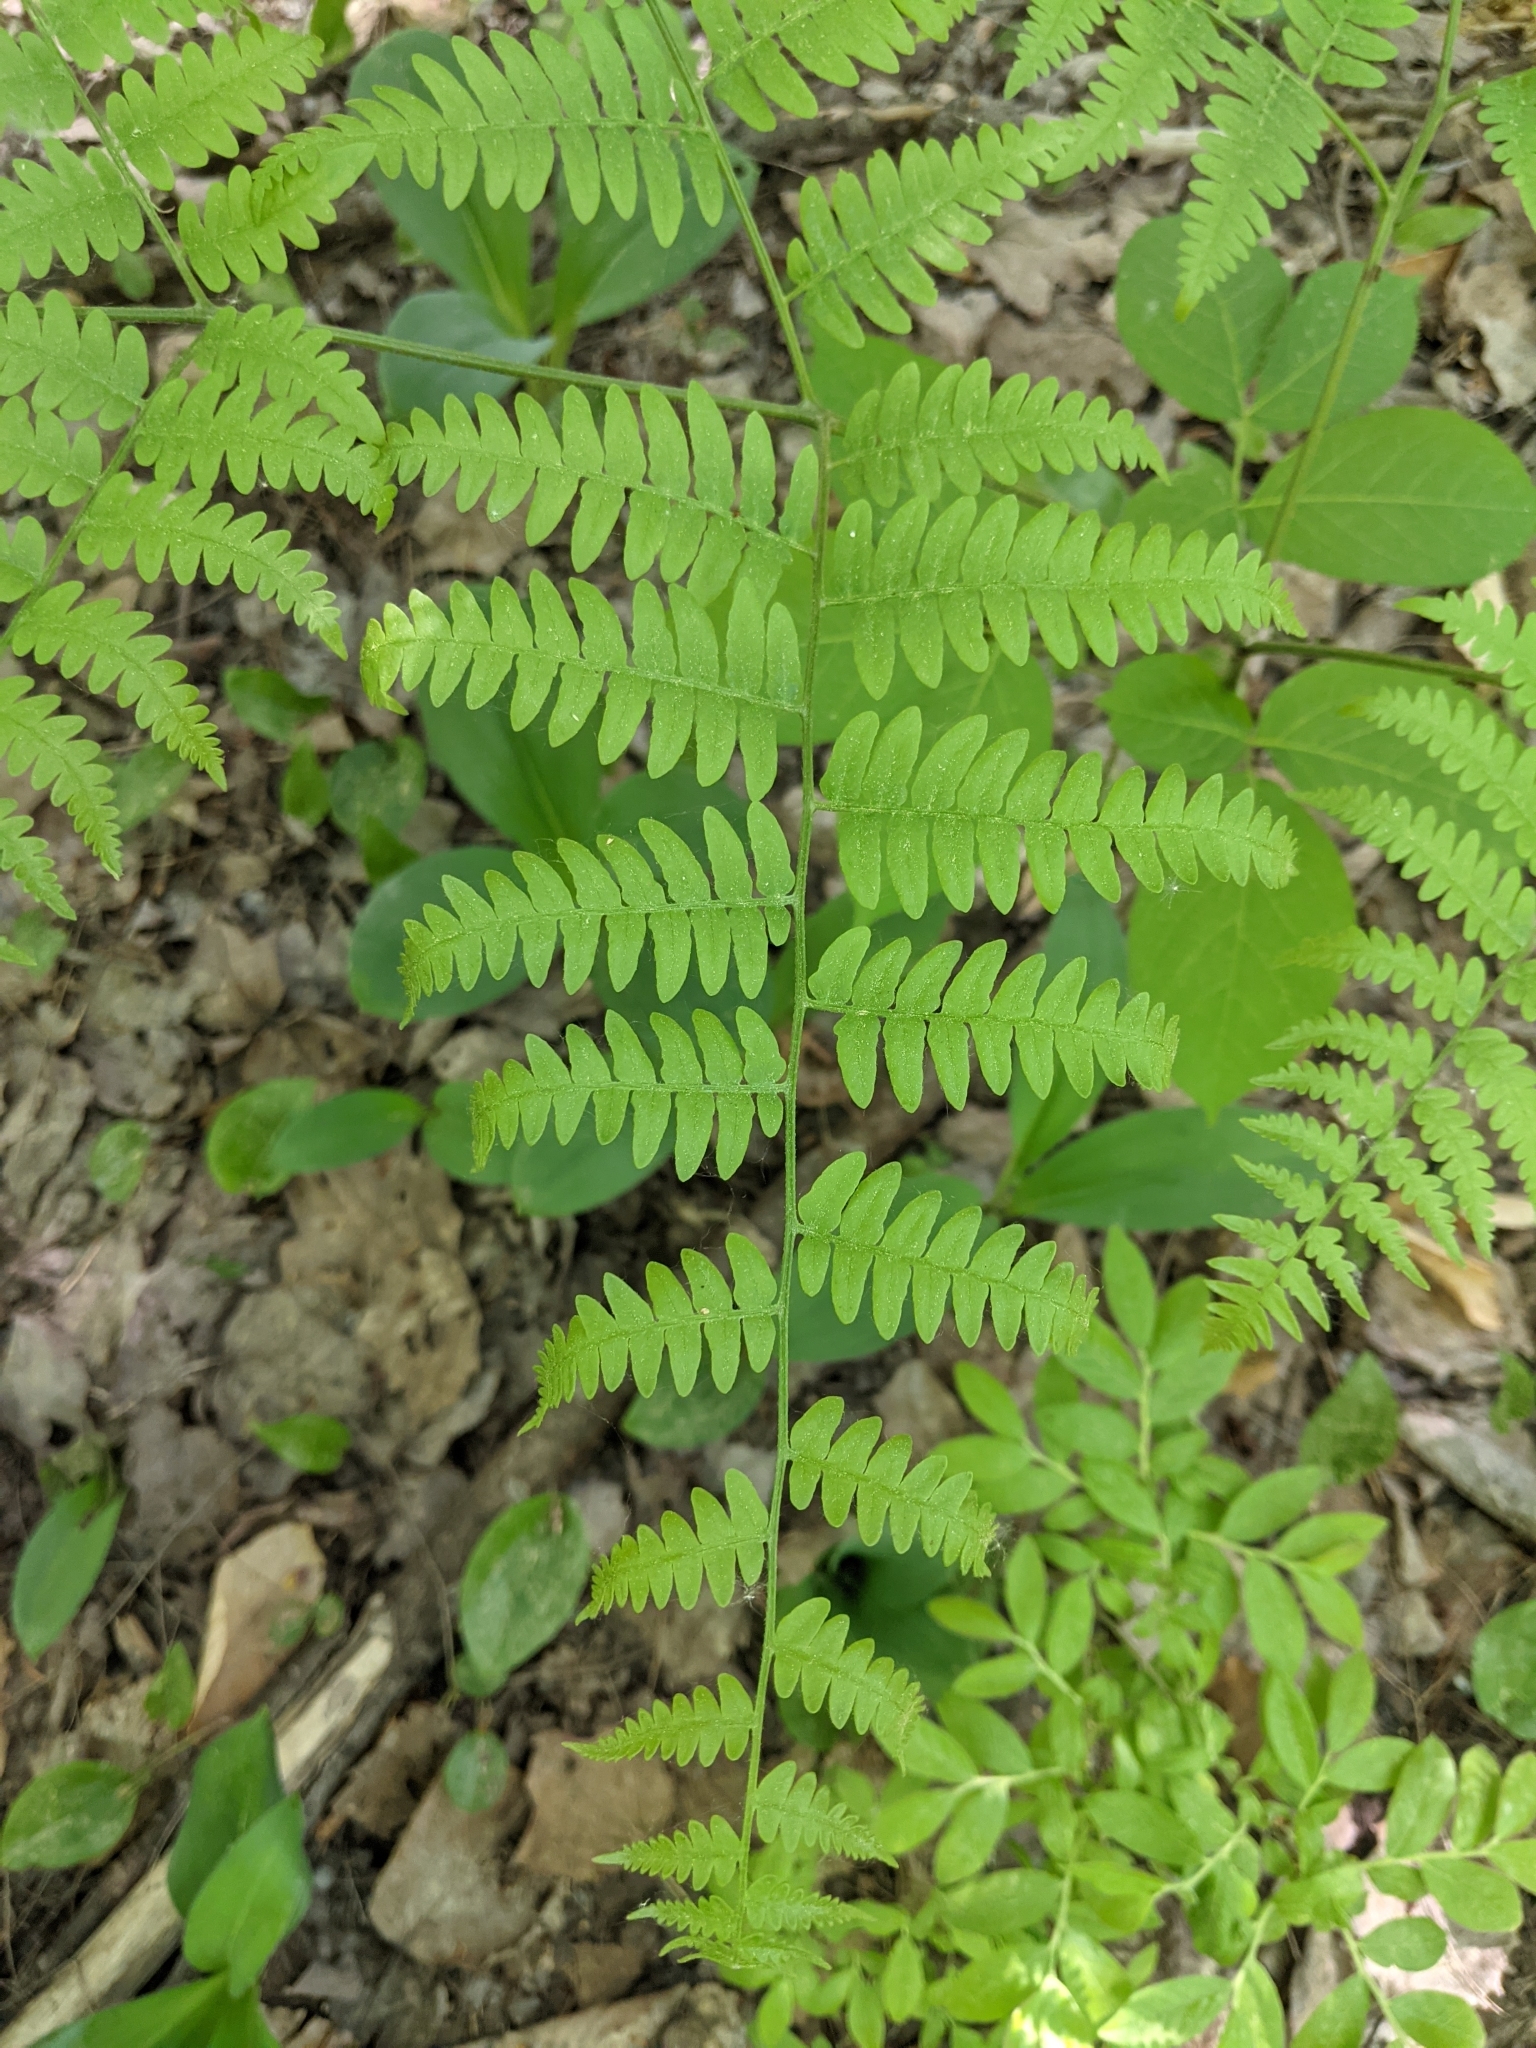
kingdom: Plantae
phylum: Tracheophyta
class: Polypodiopsida
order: Polypodiales
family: Dennstaedtiaceae
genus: Pteridium
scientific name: Pteridium aquilinum
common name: Bracken
